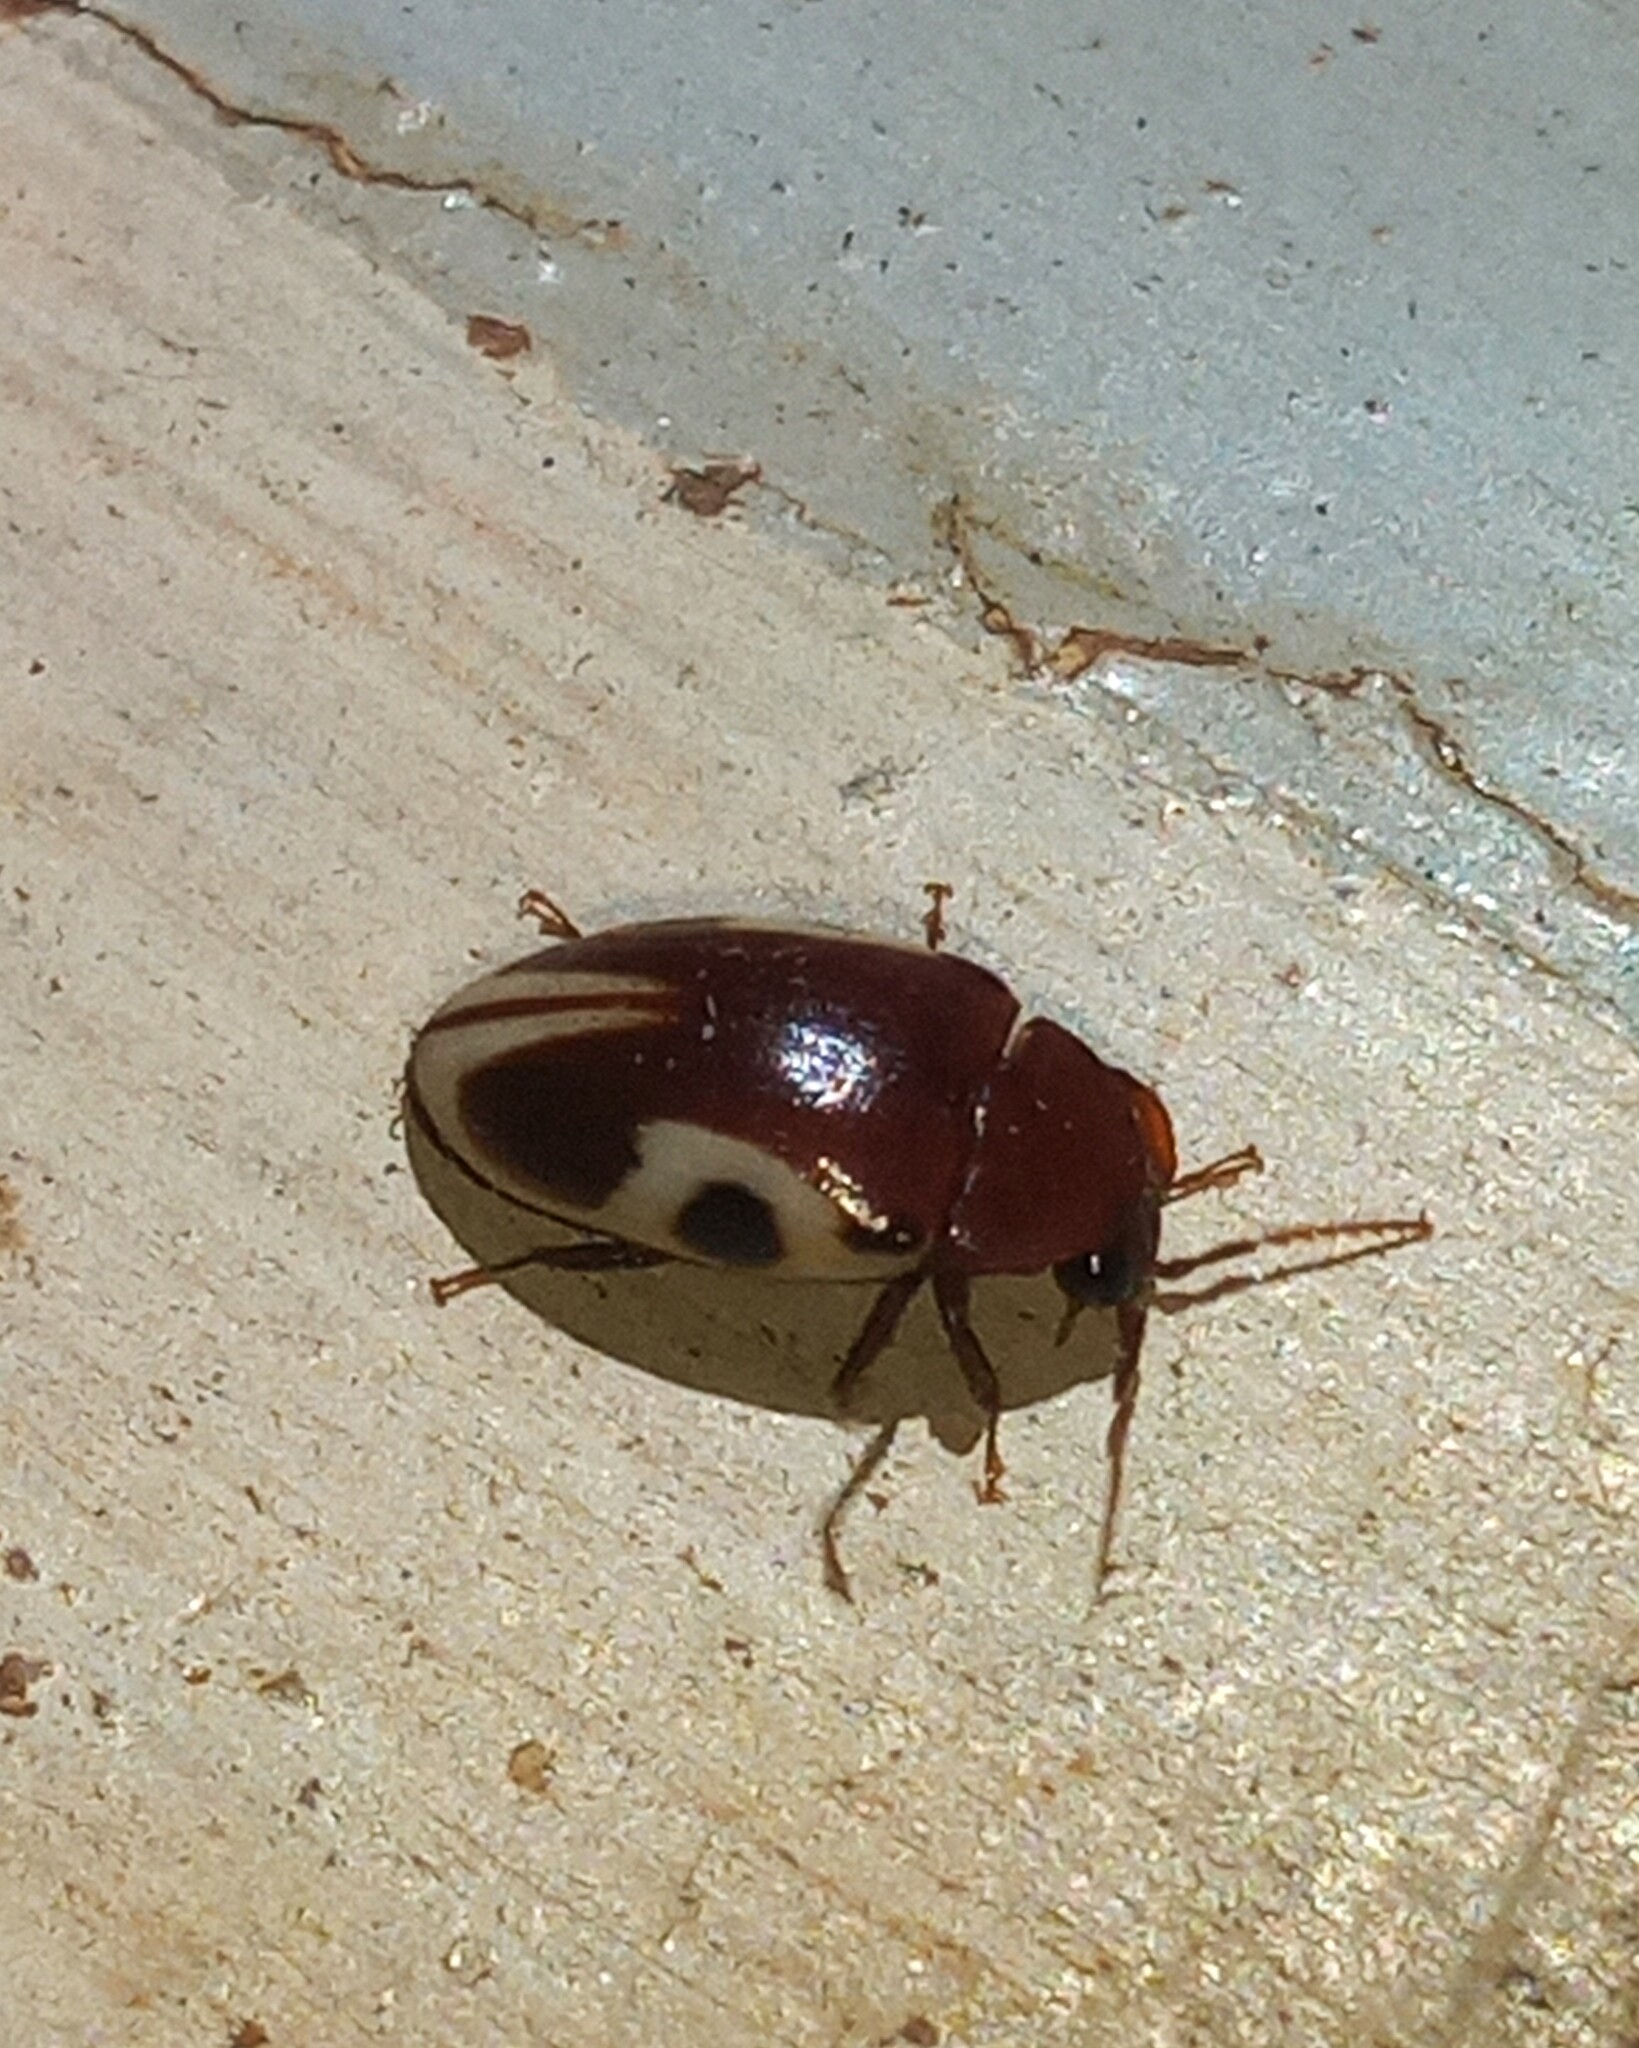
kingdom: Animalia
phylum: Arthropoda
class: Insecta
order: Coleoptera
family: Chelonariidae
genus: Chelonarium
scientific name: Chelonarium
